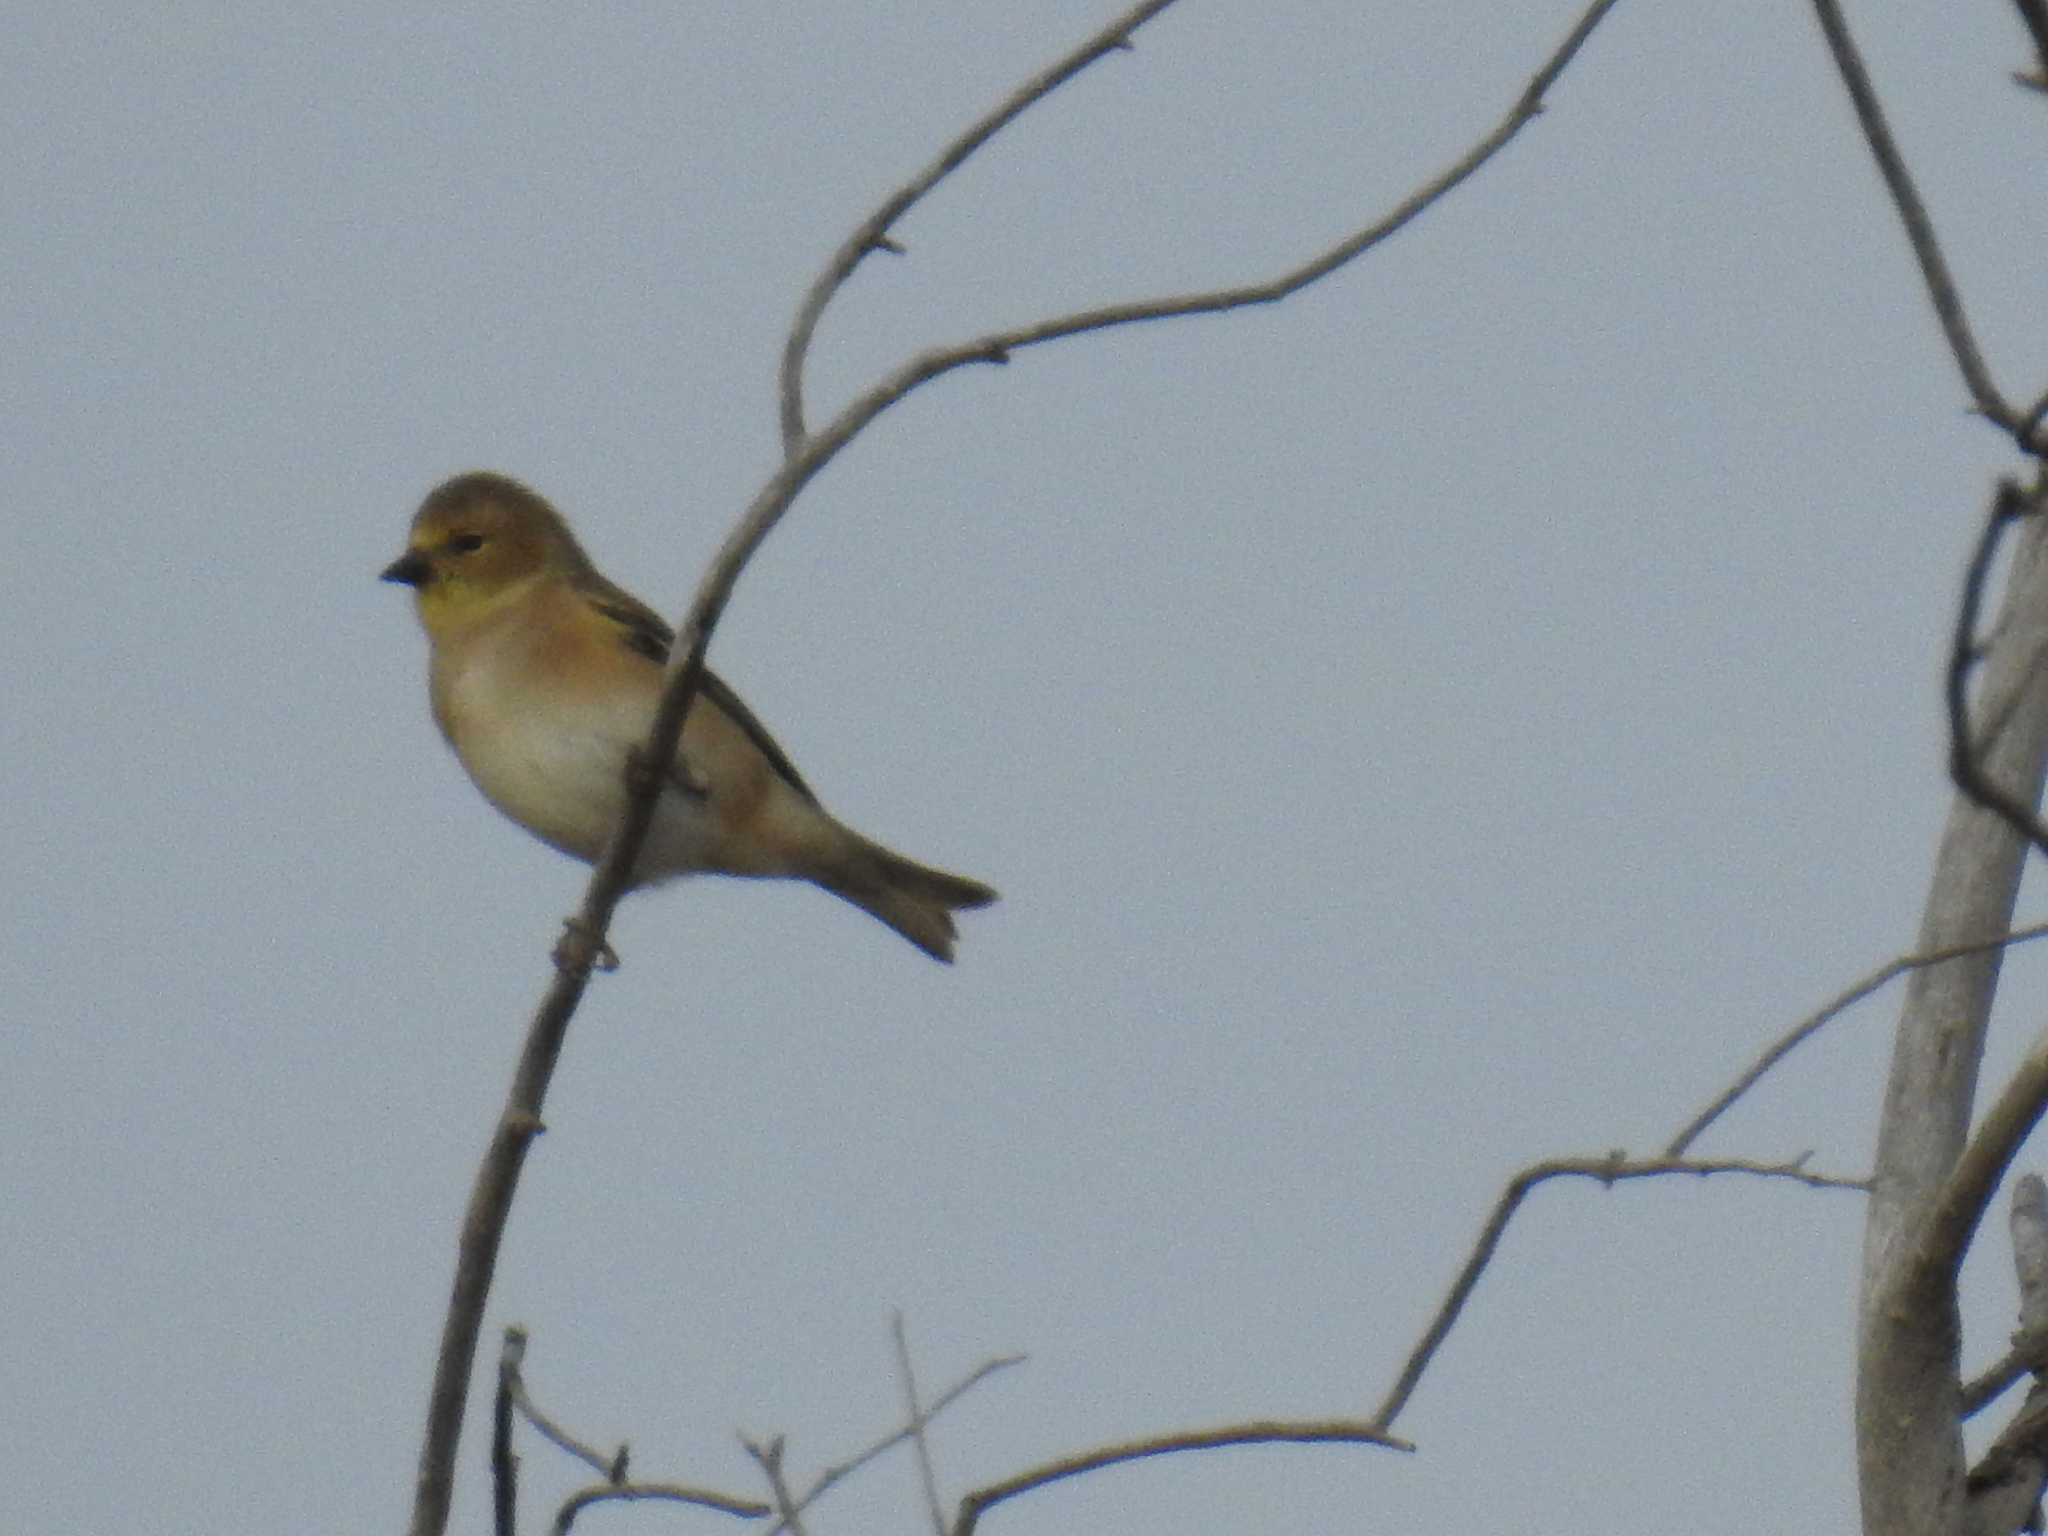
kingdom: Animalia
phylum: Chordata
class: Aves
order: Passeriformes
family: Fringillidae
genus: Spinus
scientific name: Spinus tristis
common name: American goldfinch
